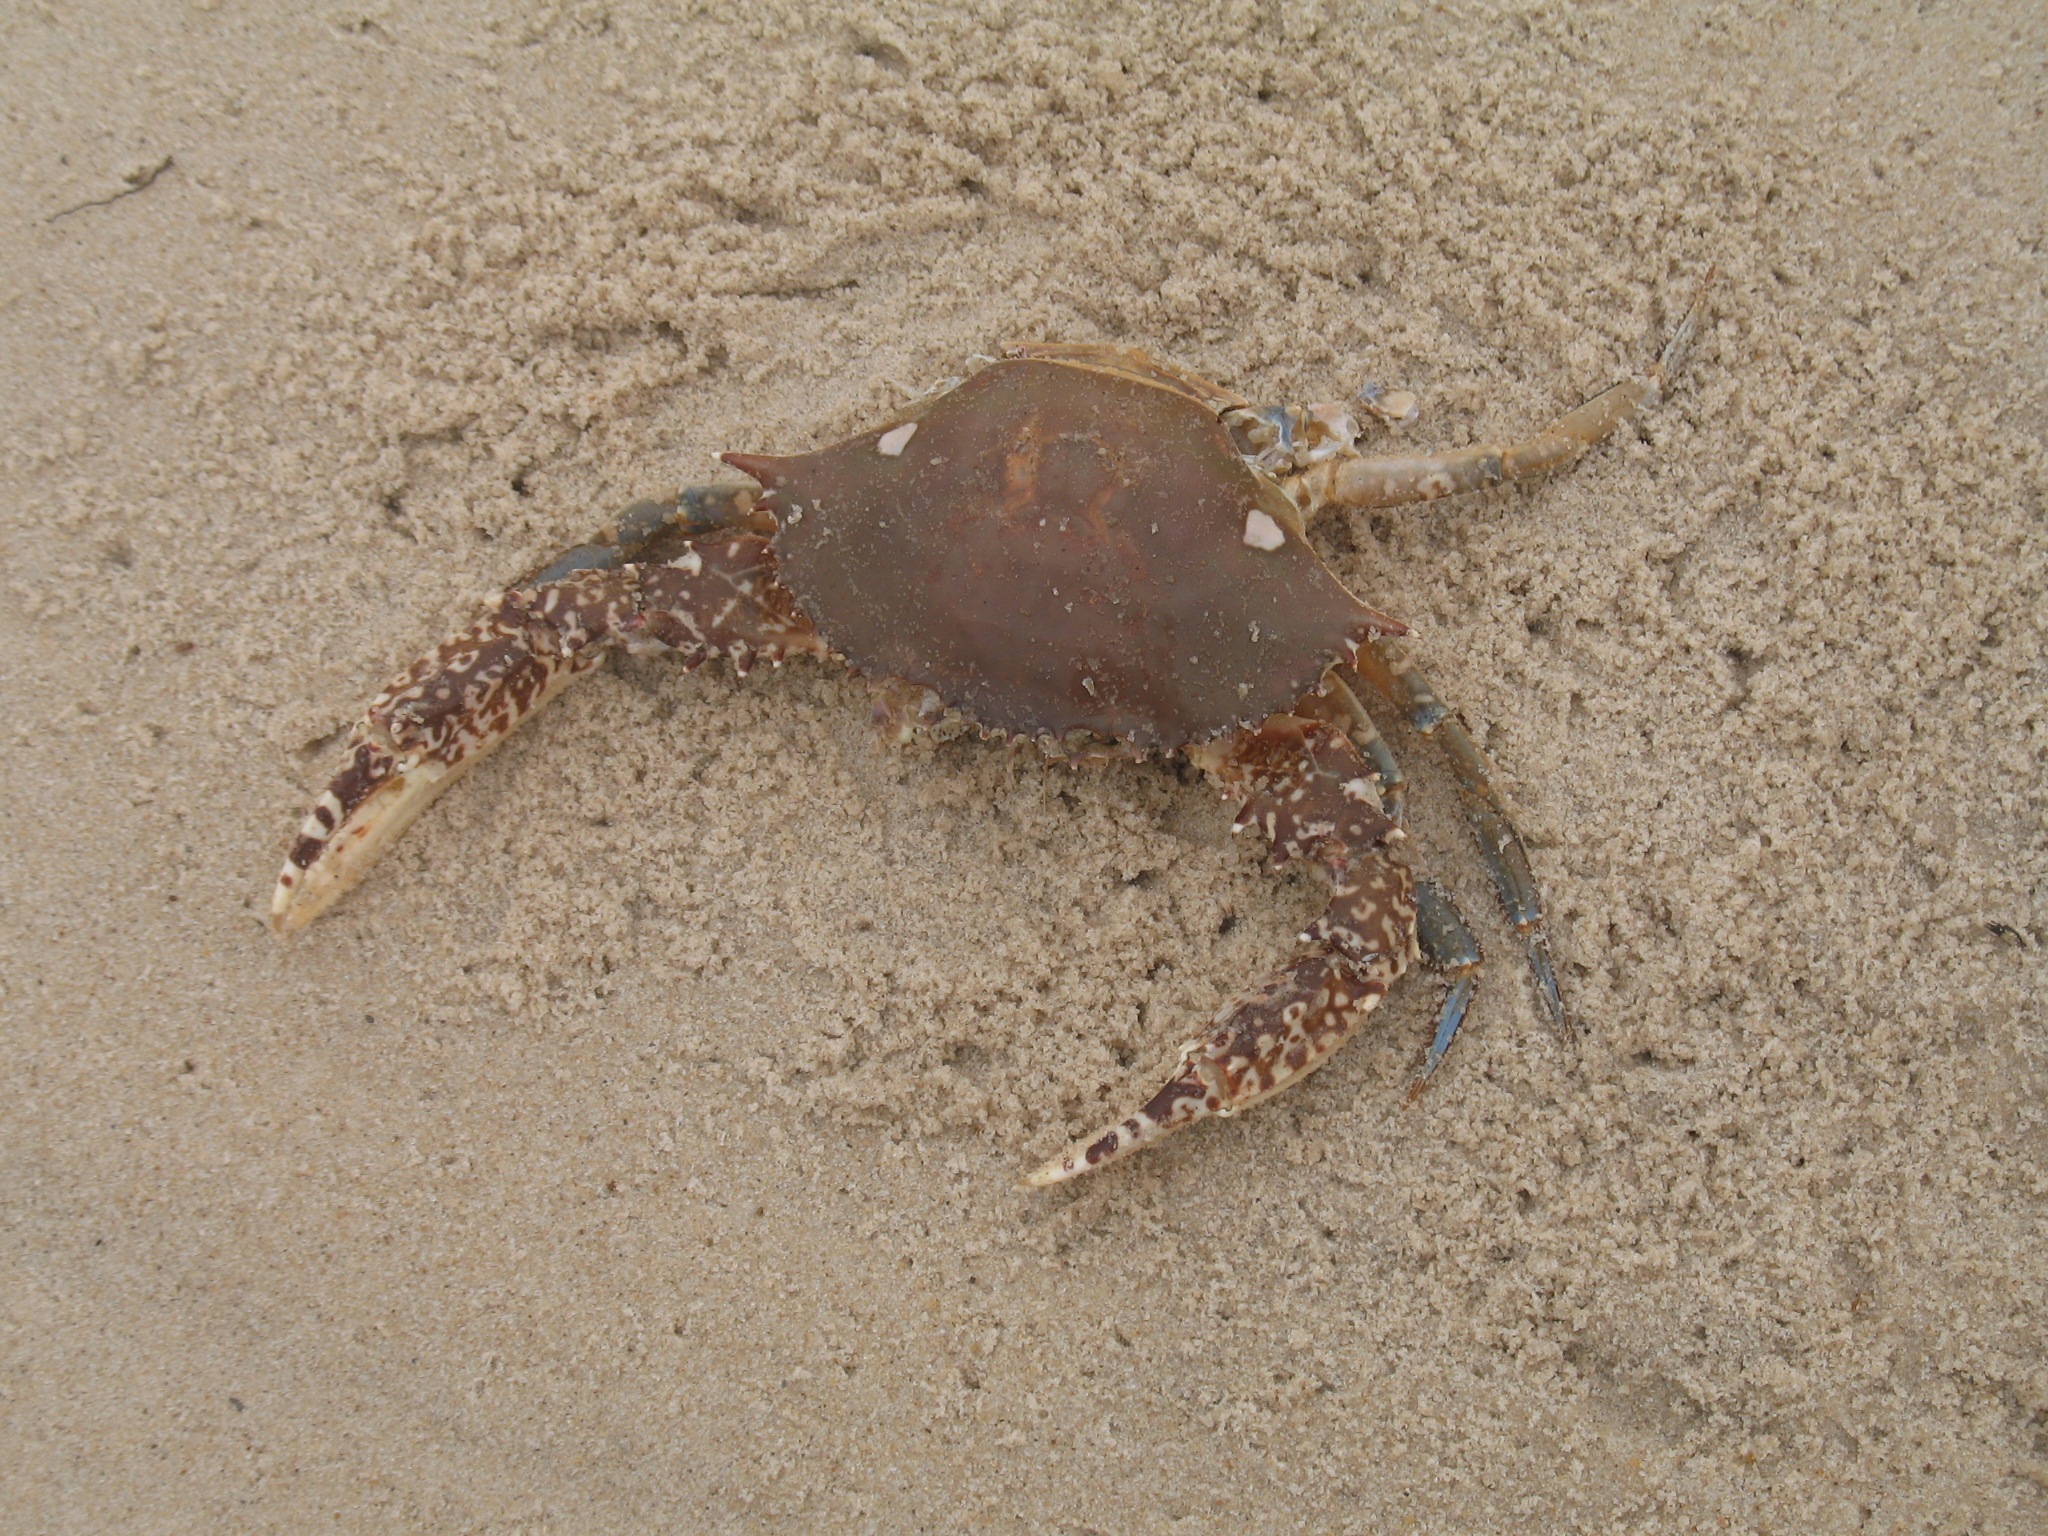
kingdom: Animalia
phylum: Arthropoda
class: Malacostraca
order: Decapoda
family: Portunidae
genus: Sanquerus
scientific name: Sanquerus validus
